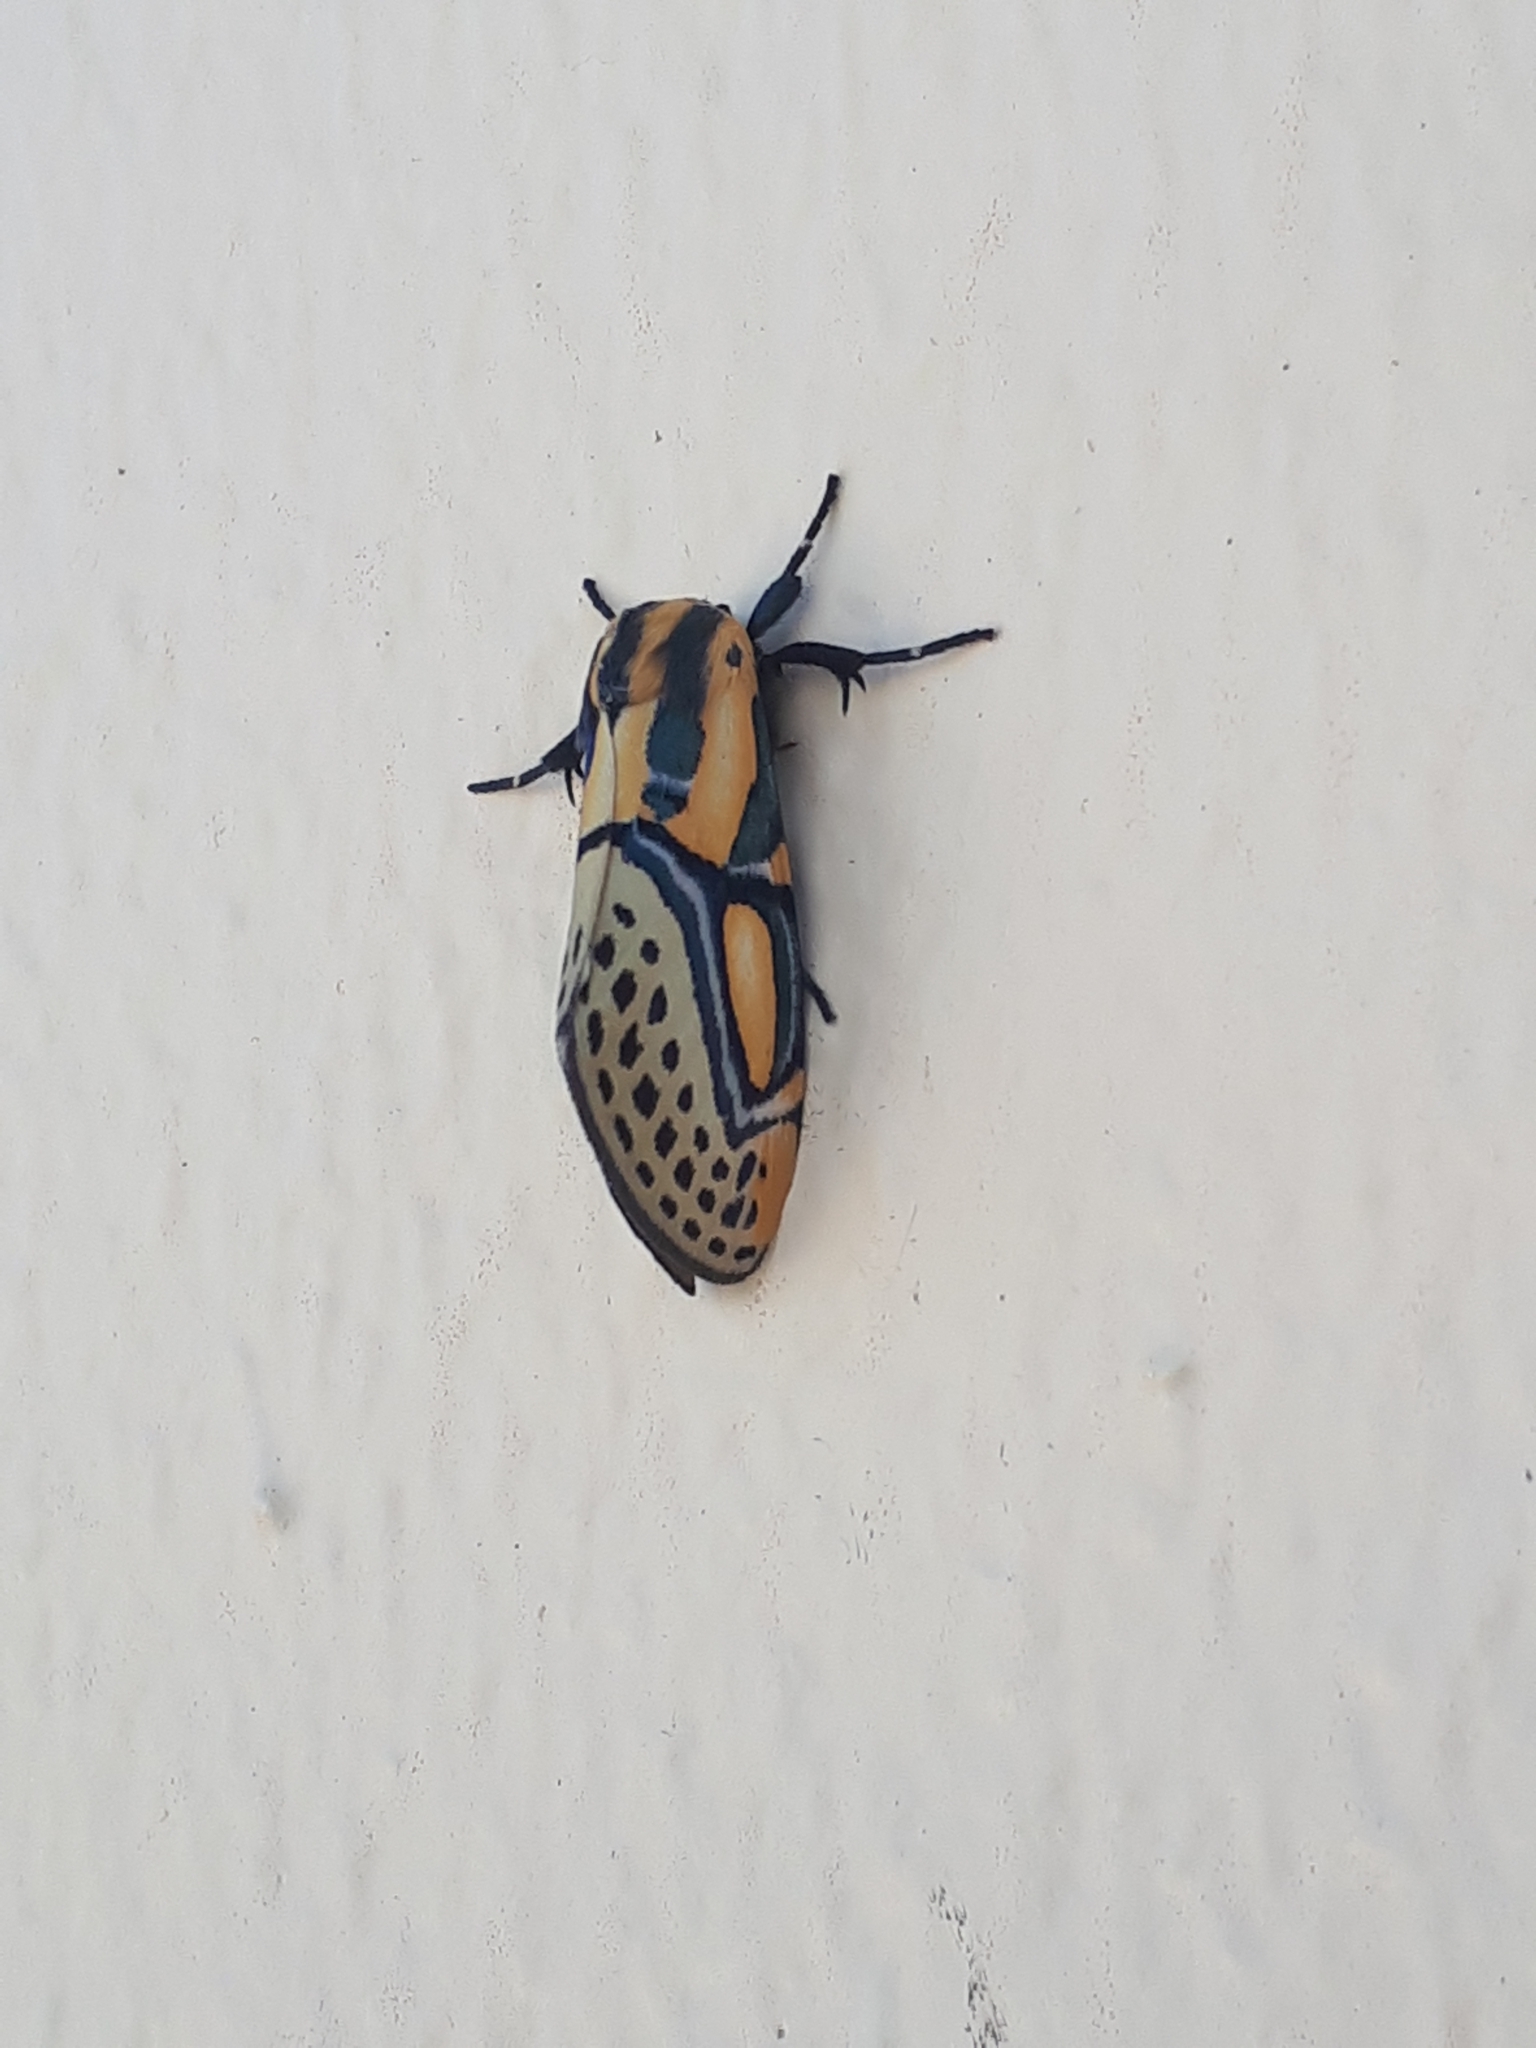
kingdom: Animalia
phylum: Arthropoda
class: Insecta
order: Lepidoptera
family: Erebidae
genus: Diphthera
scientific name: Diphthera festiva
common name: Hieroglyphic moth
